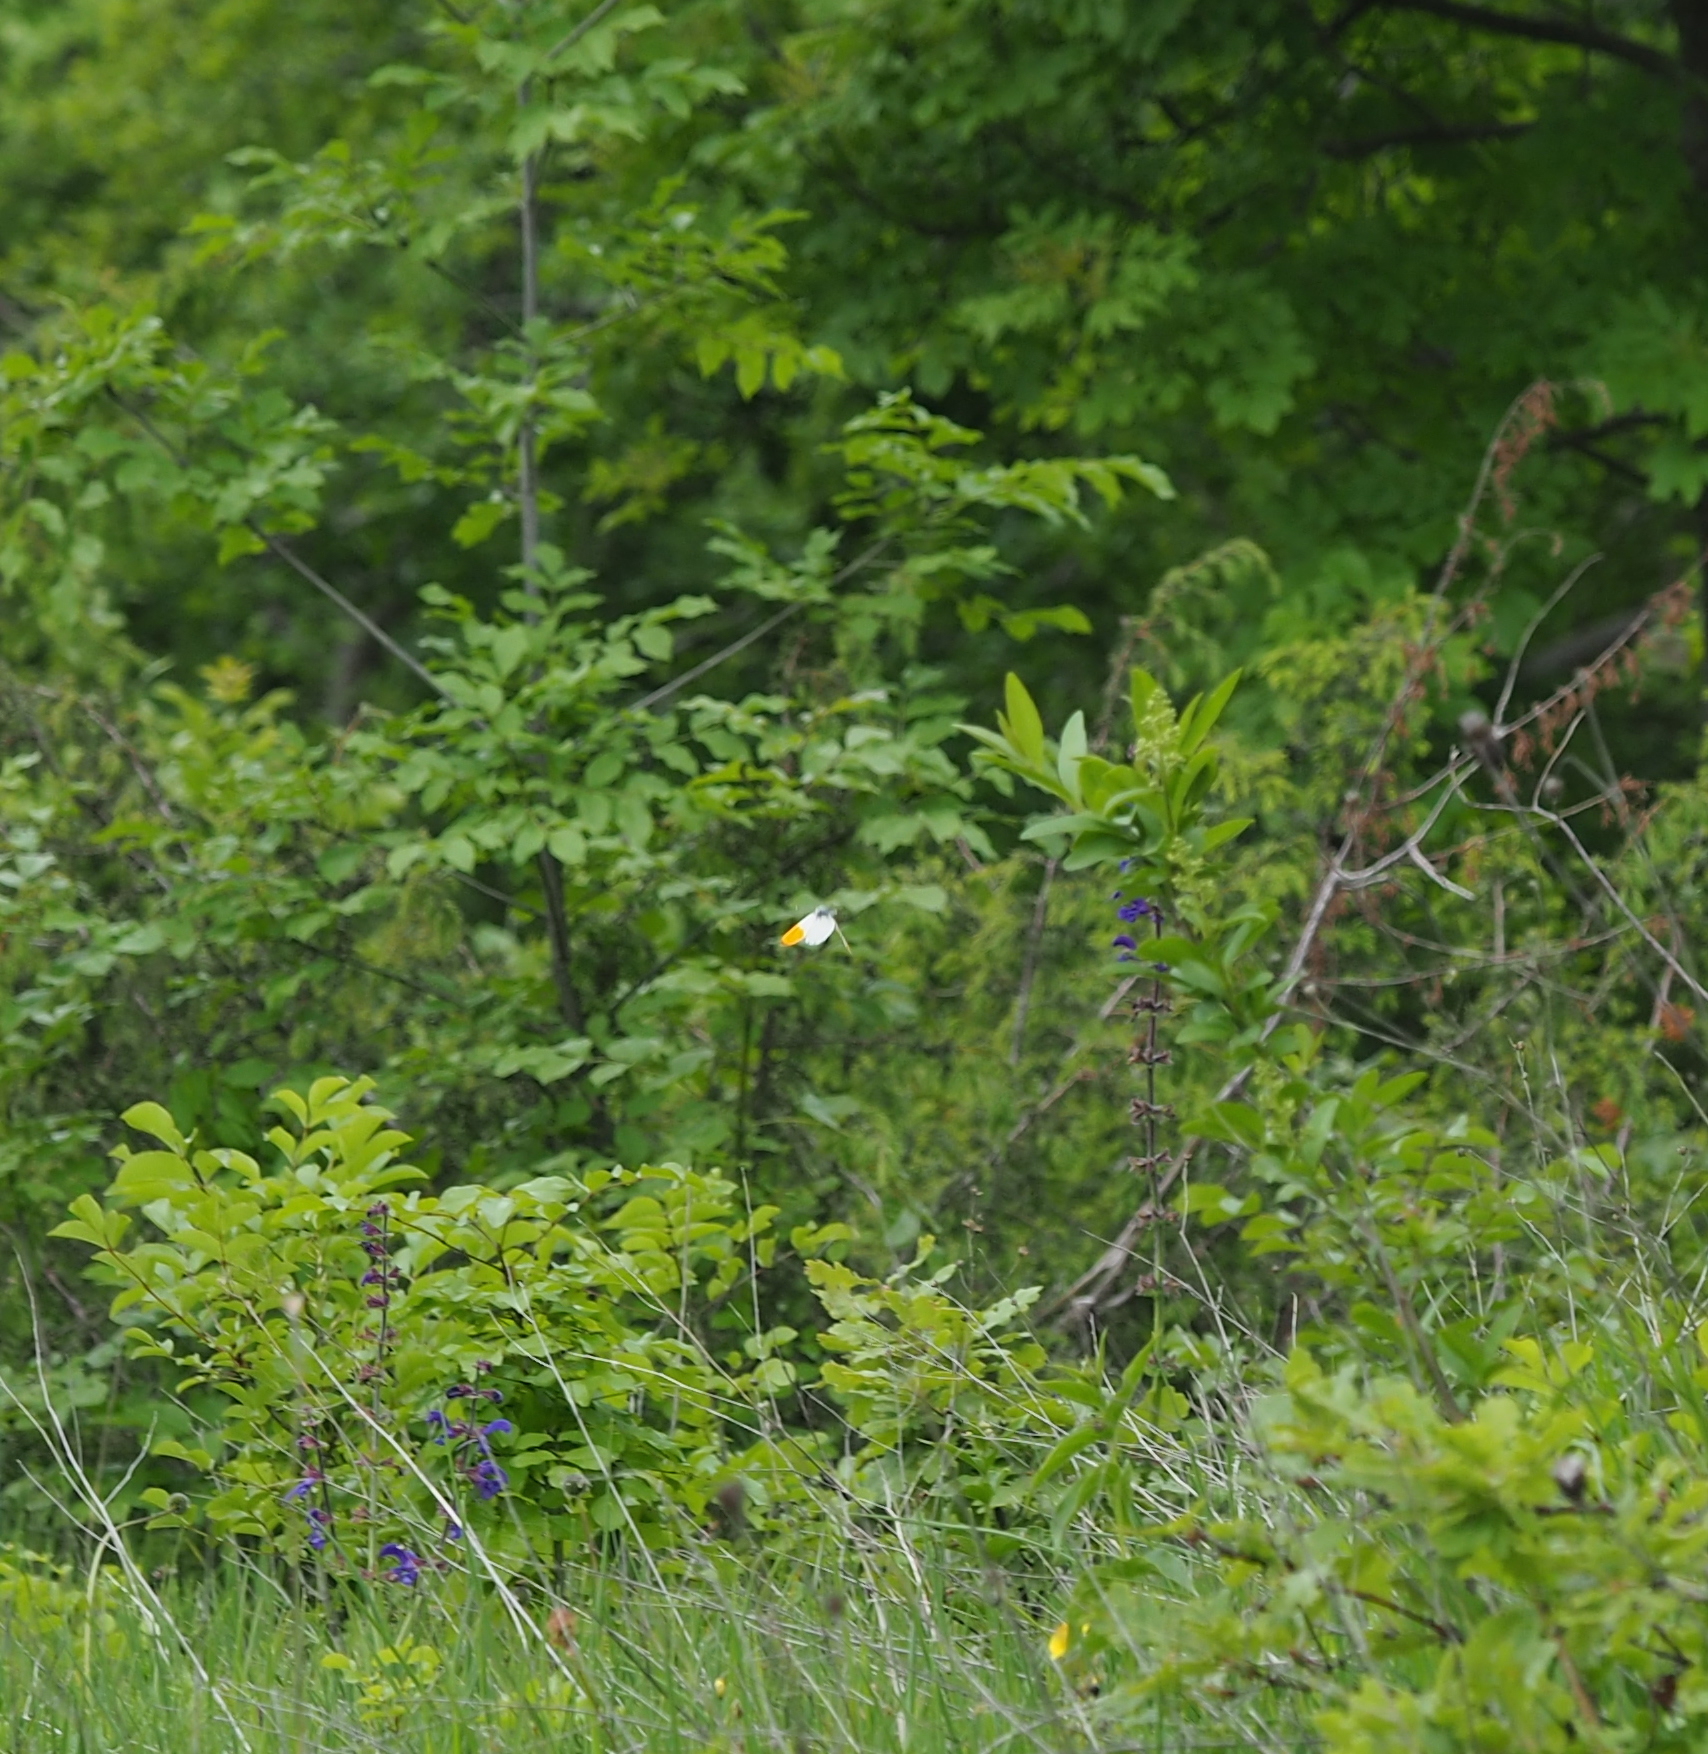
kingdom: Animalia
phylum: Arthropoda
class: Insecta
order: Lepidoptera
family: Pieridae
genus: Anthocharis
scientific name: Anthocharis cardamines
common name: Orange-tip
